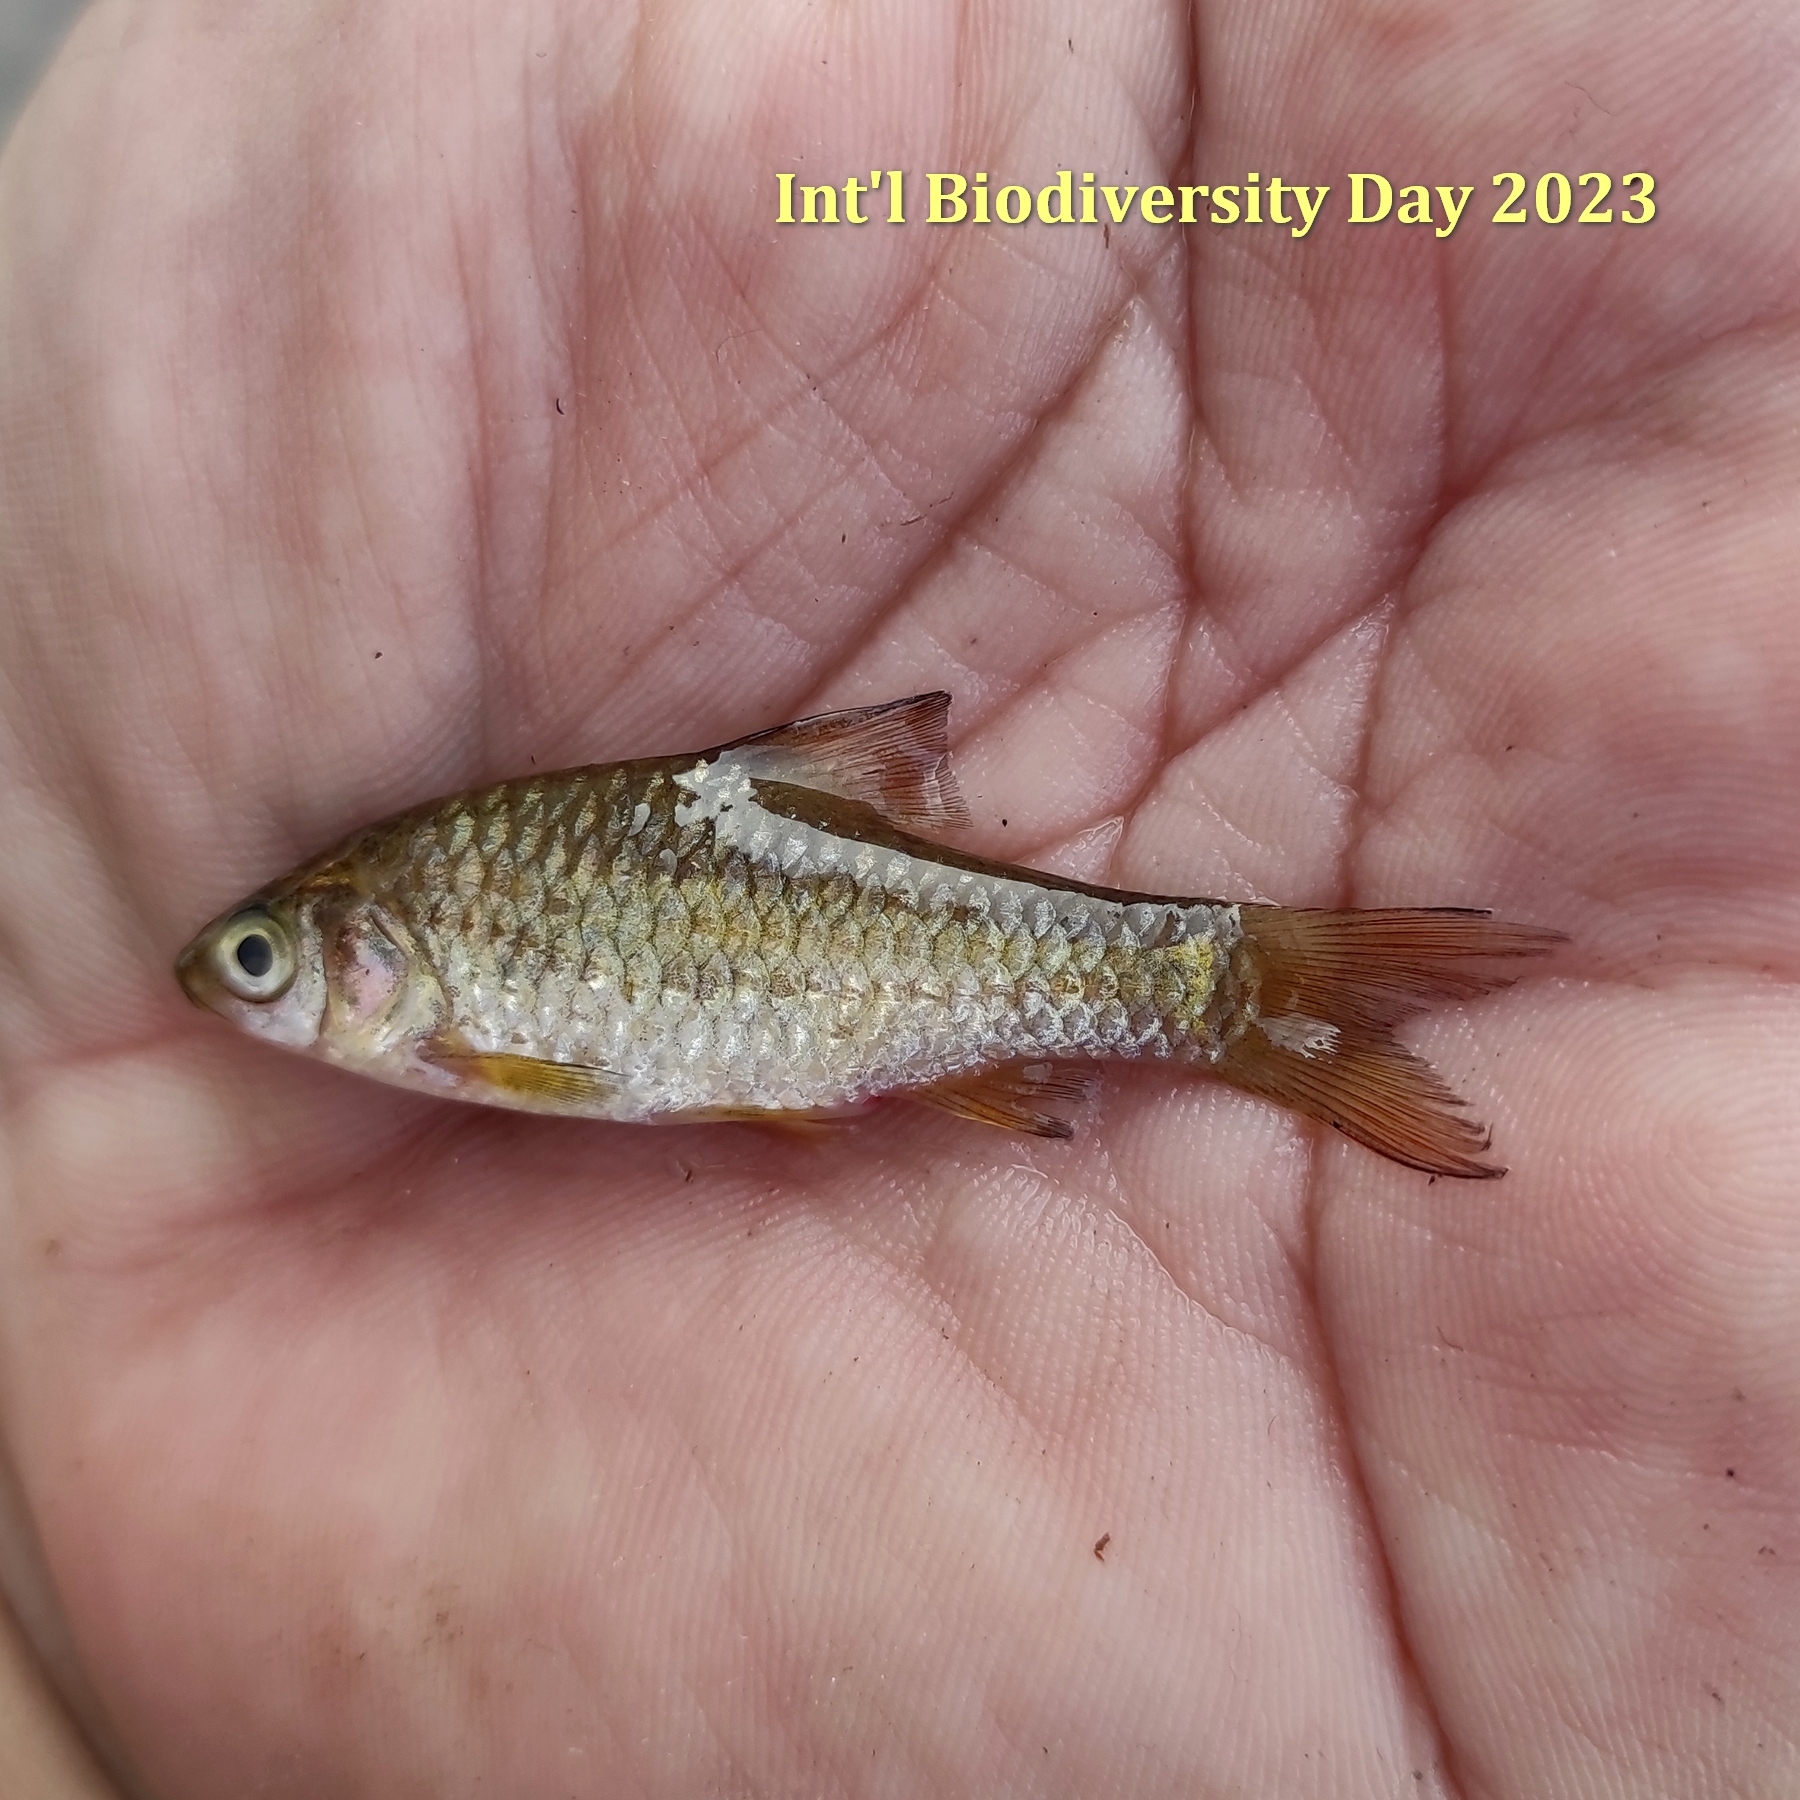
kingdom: Animalia
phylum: Chordata
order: Cypriniformes
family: Cyprinidae
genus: Puntius
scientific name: Puntius brevis
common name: Swamp barb
